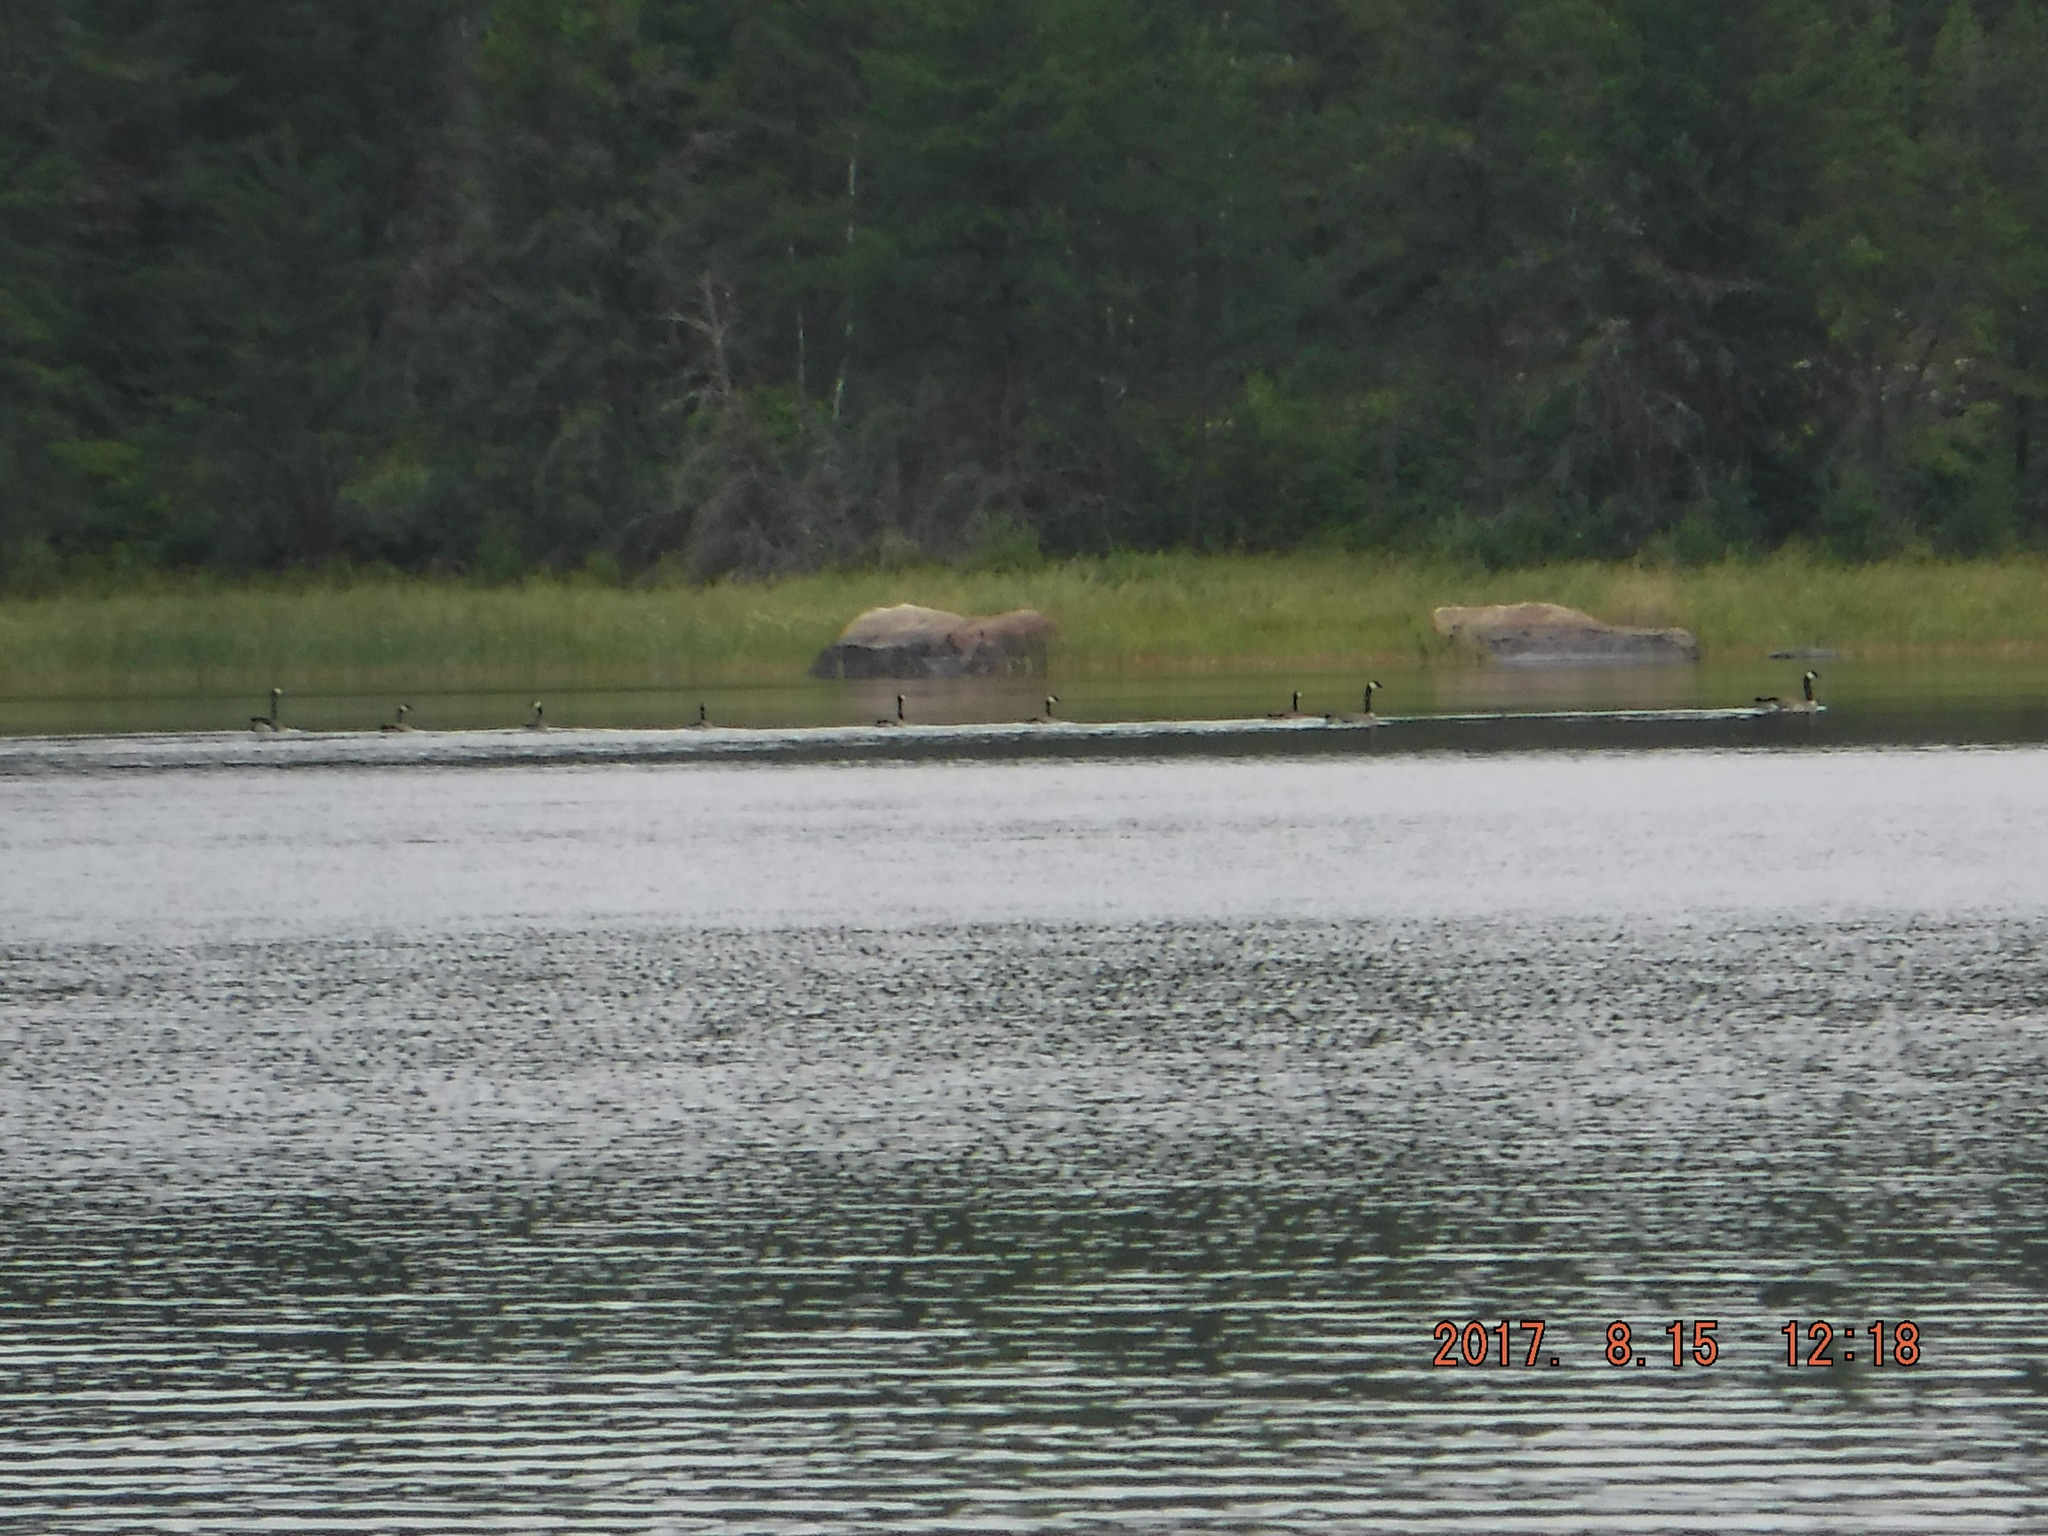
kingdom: Animalia
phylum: Chordata
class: Aves
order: Anseriformes
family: Anatidae
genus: Branta
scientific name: Branta canadensis
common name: Canada goose
